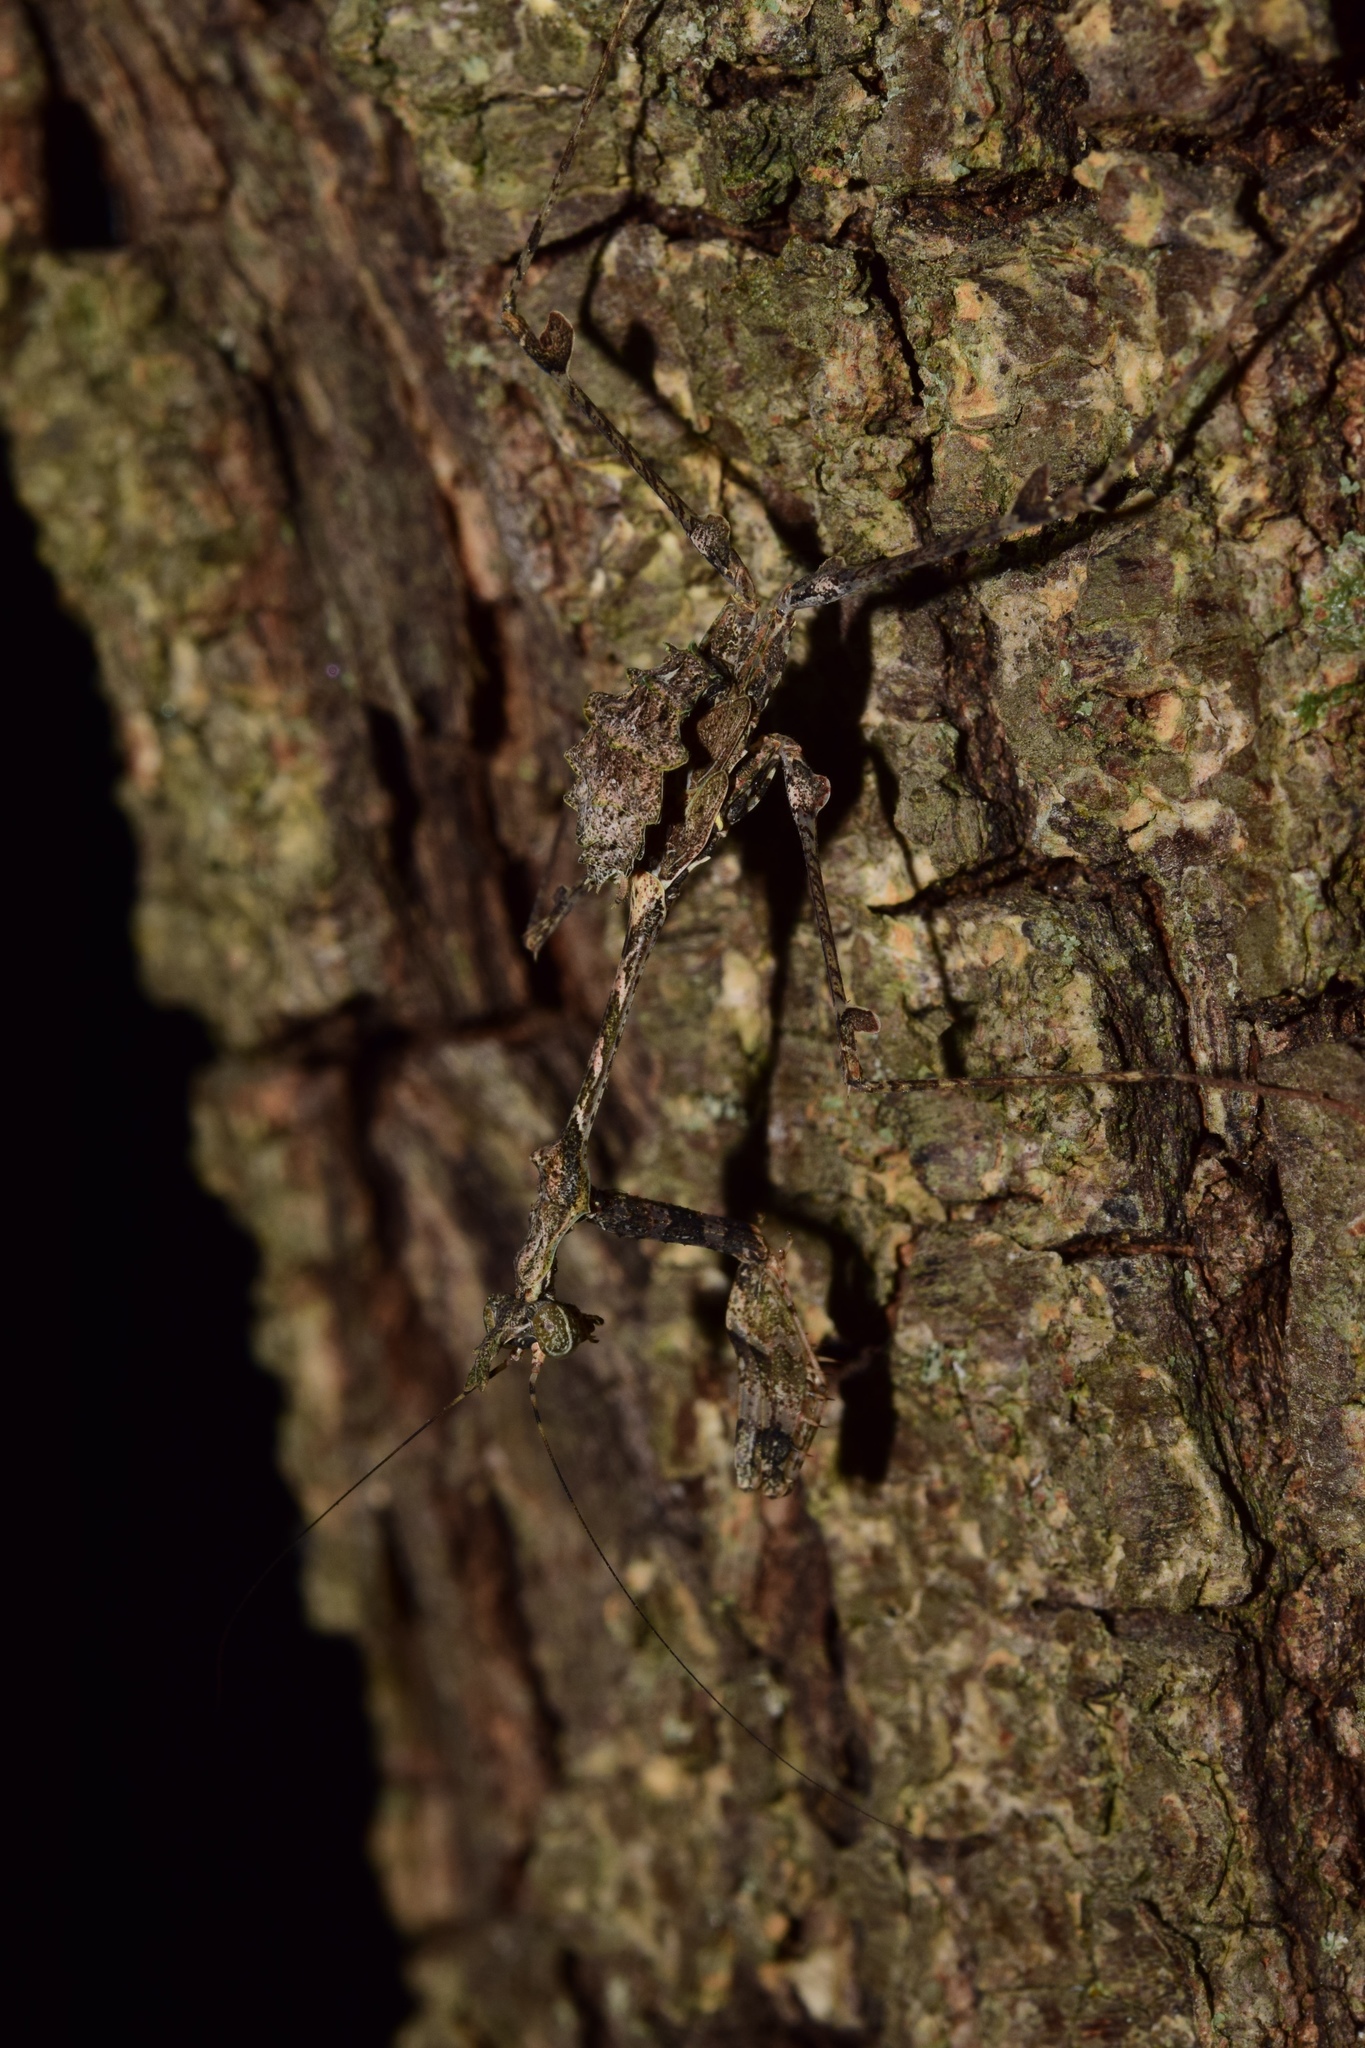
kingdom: Animalia
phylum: Arthropoda
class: Insecta
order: Mantodea
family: Hymenopodidae
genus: Sibylla
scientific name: Sibylla pretiosa
